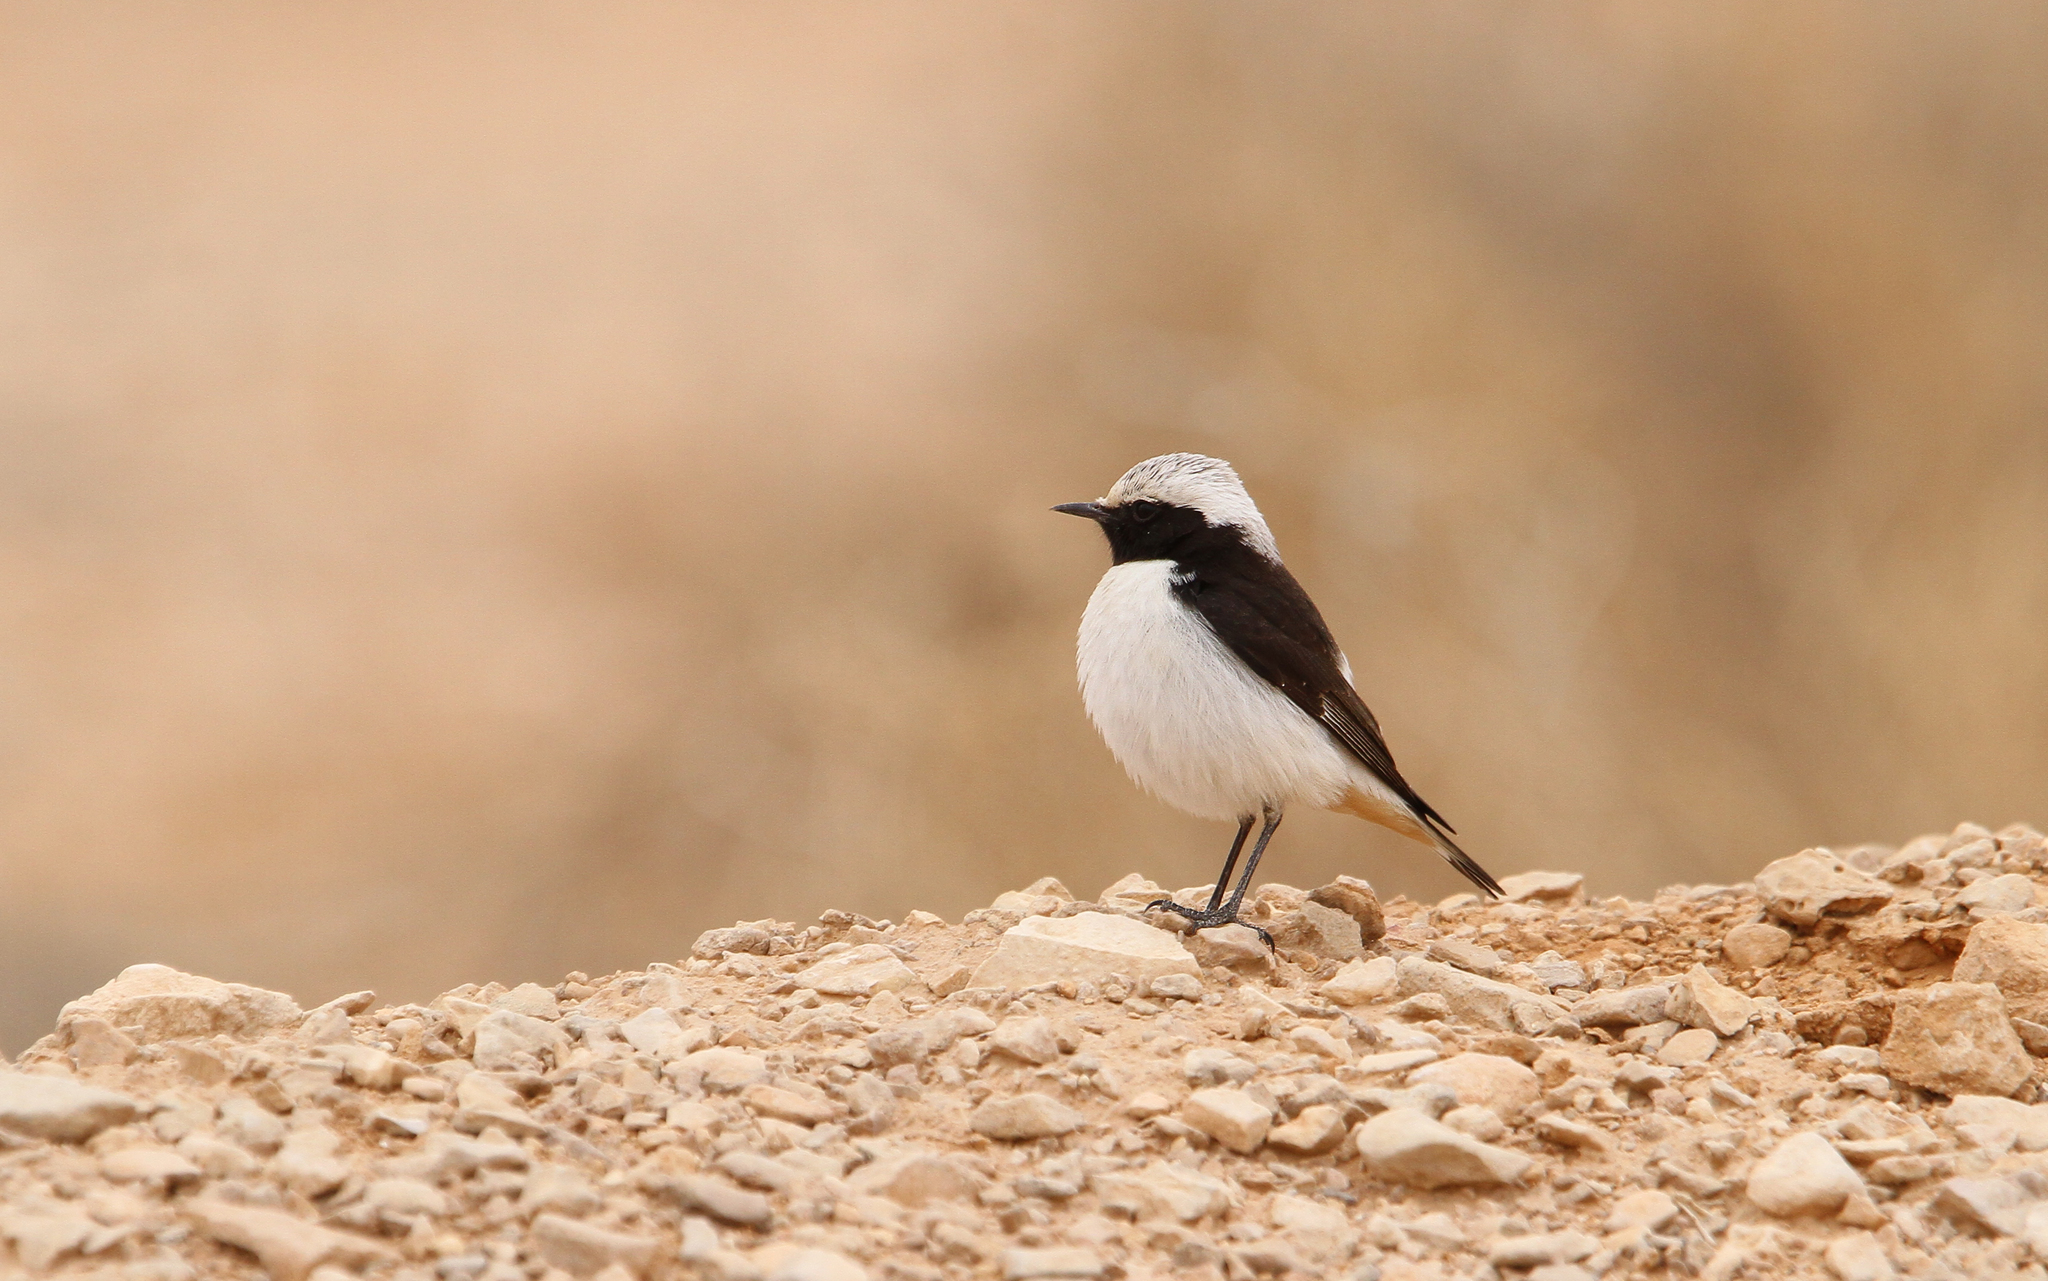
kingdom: Animalia
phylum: Chordata
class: Aves
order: Passeriformes
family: Muscicapidae
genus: Oenanthe
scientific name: Oenanthe lugens
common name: Mourning wheatear
